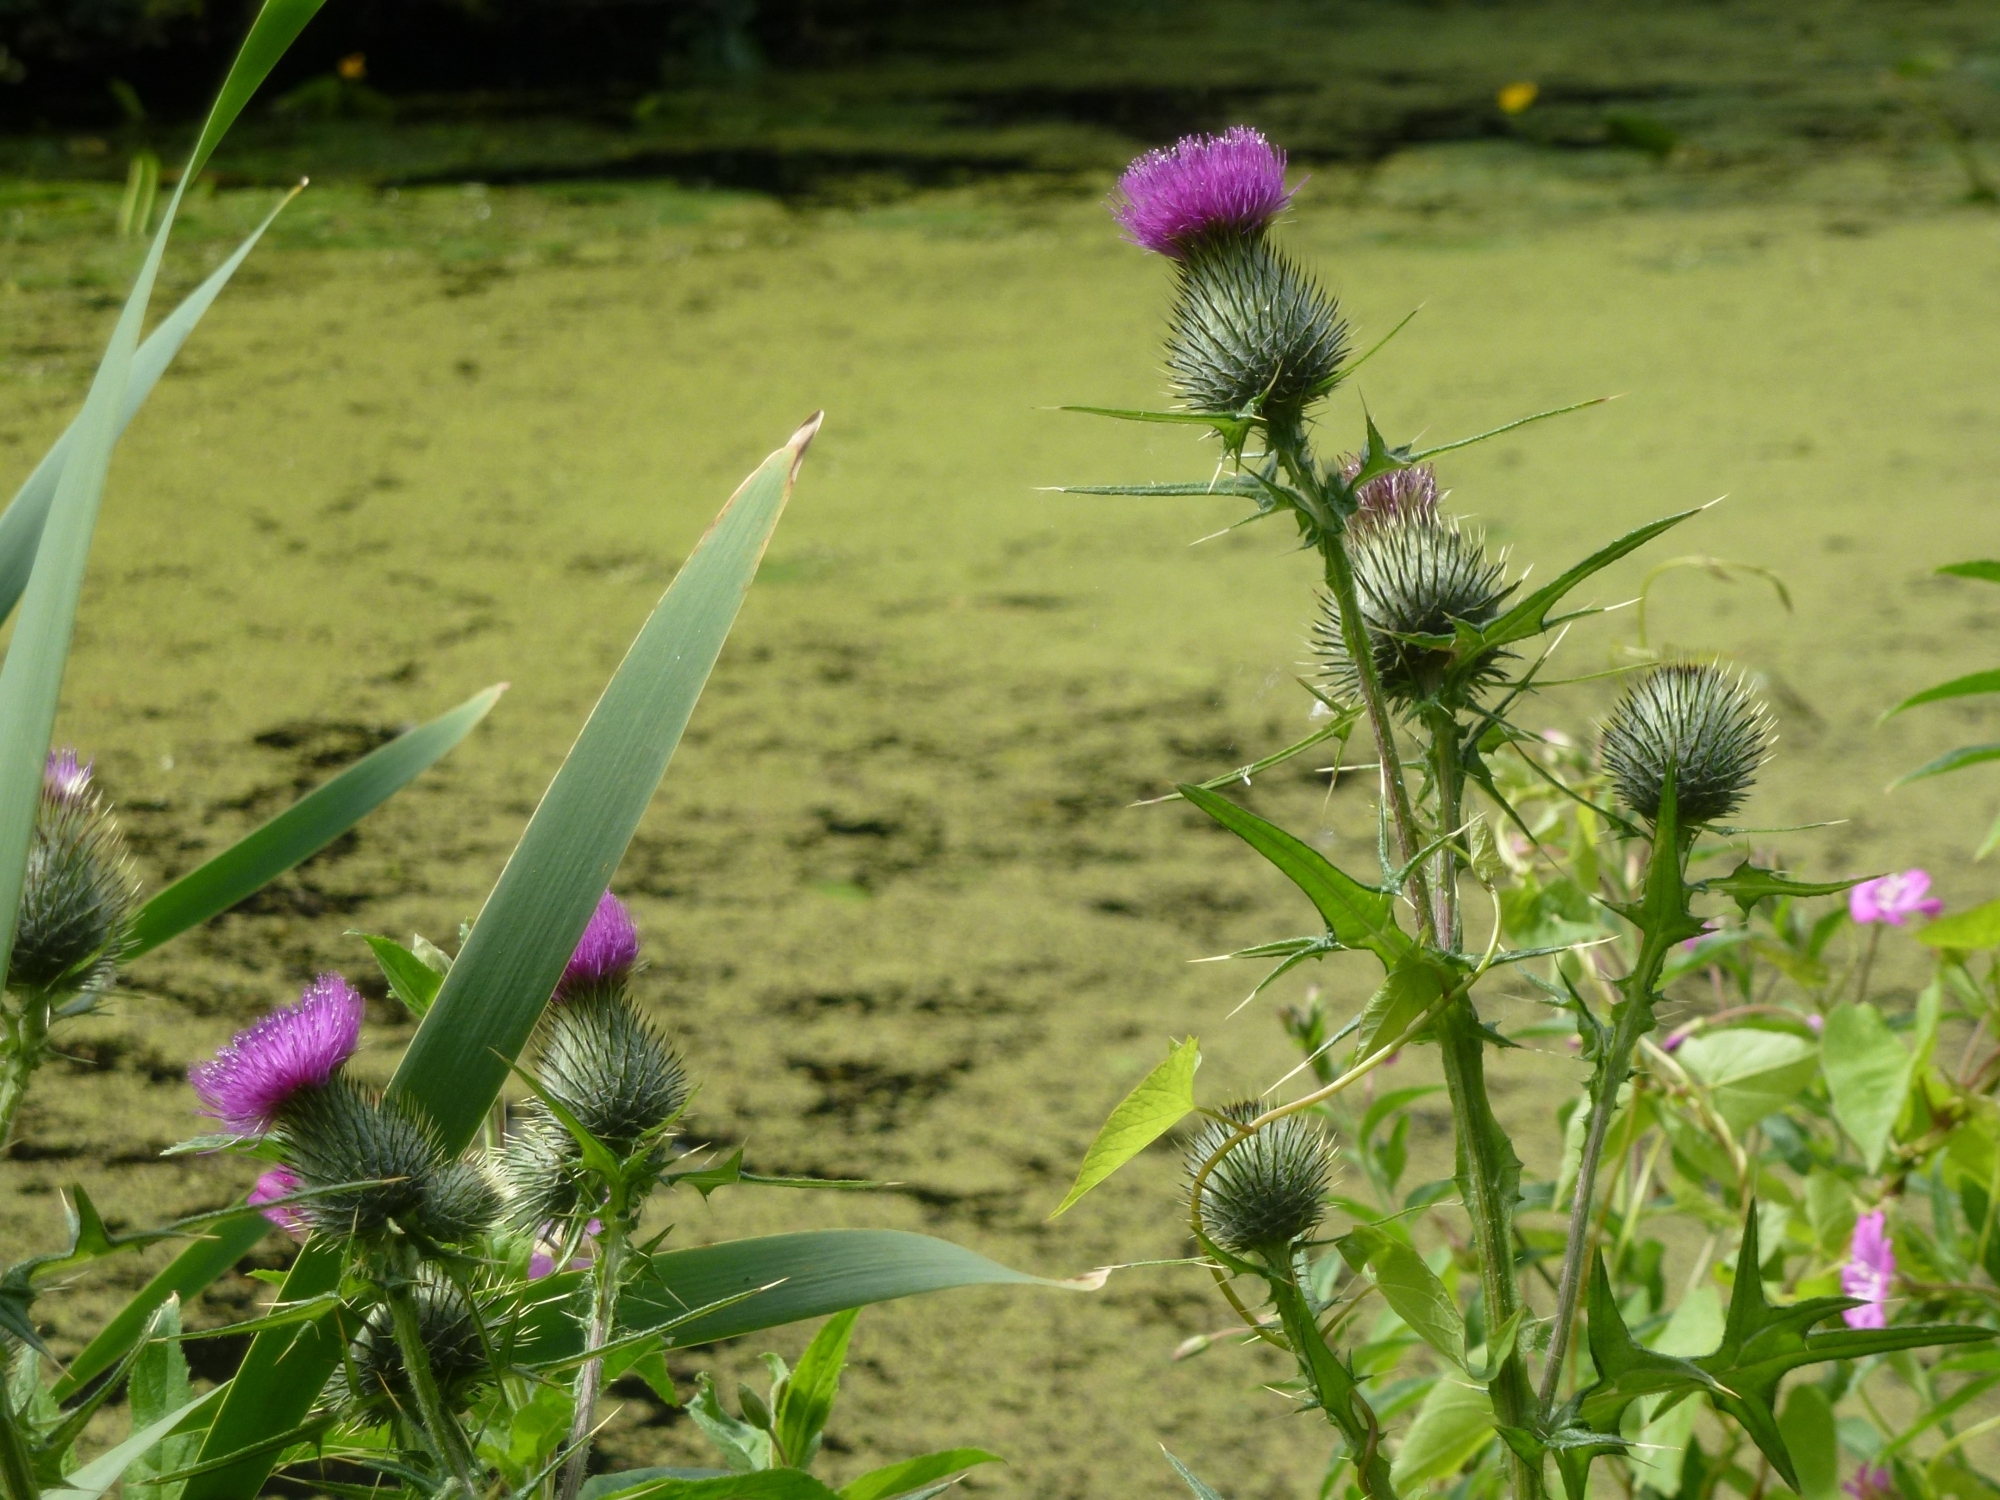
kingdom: Plantae
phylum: Tracheophyta
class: Magnoliopsida
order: Asterales
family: Asteraceae
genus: Cirsium
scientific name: Cirsium vulgare
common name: Bull thistle
